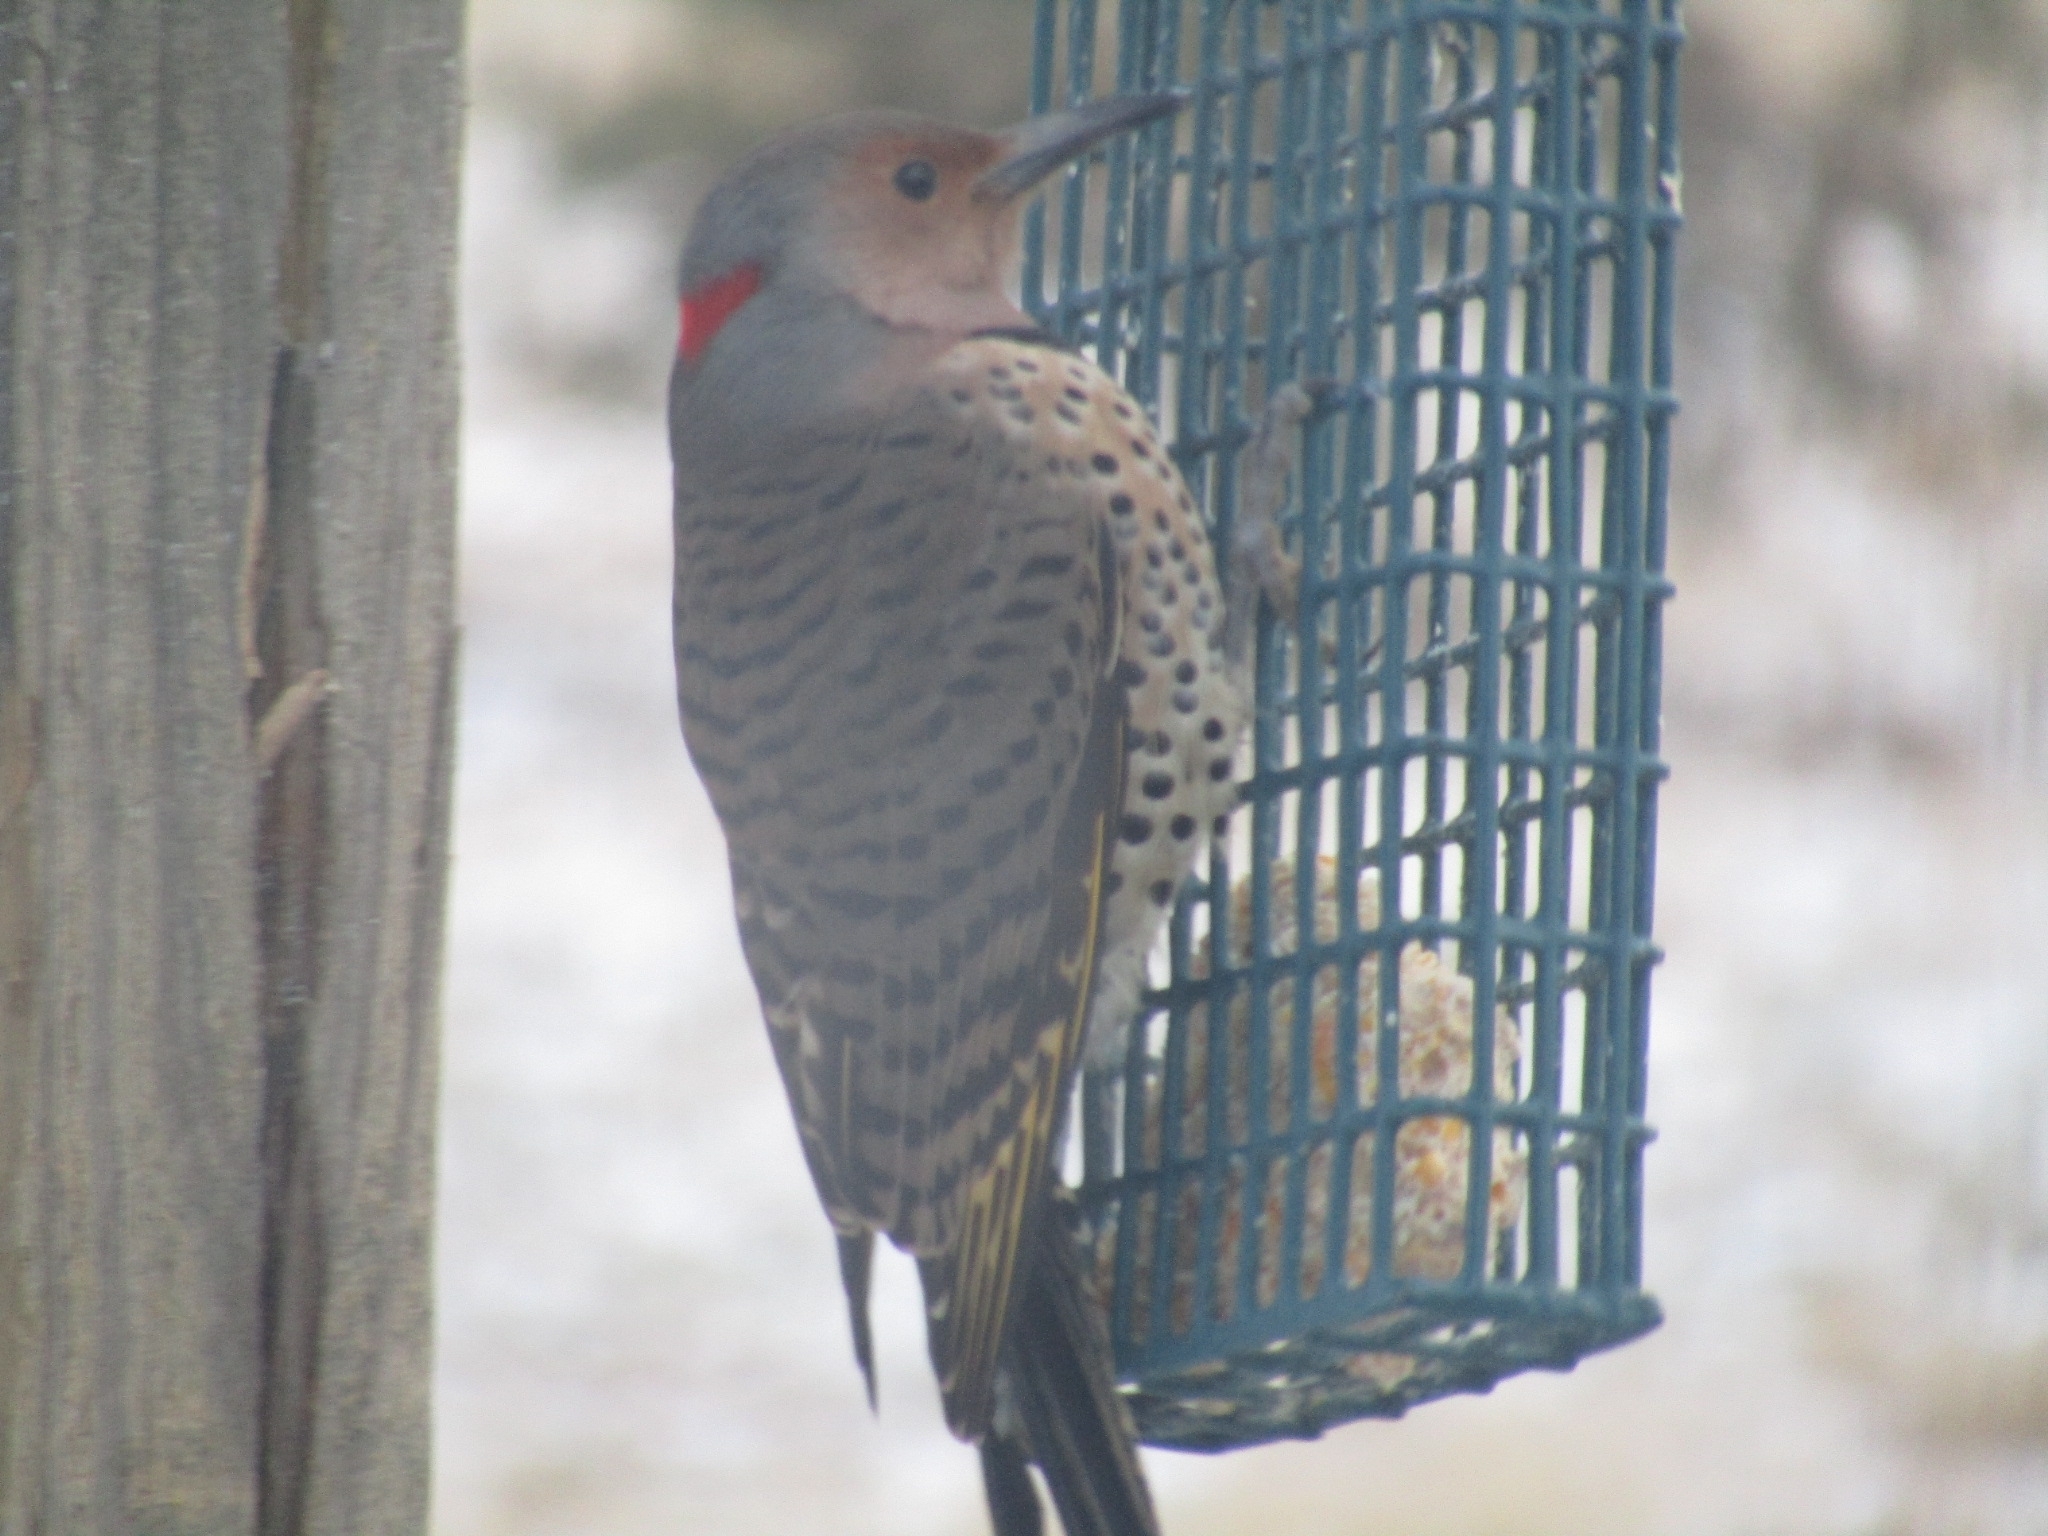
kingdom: Animalia
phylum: Chordata
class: Aves
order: Piciformes
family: Picidae
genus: Colaptes
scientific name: Colaptes auratus
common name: Northern flicker
